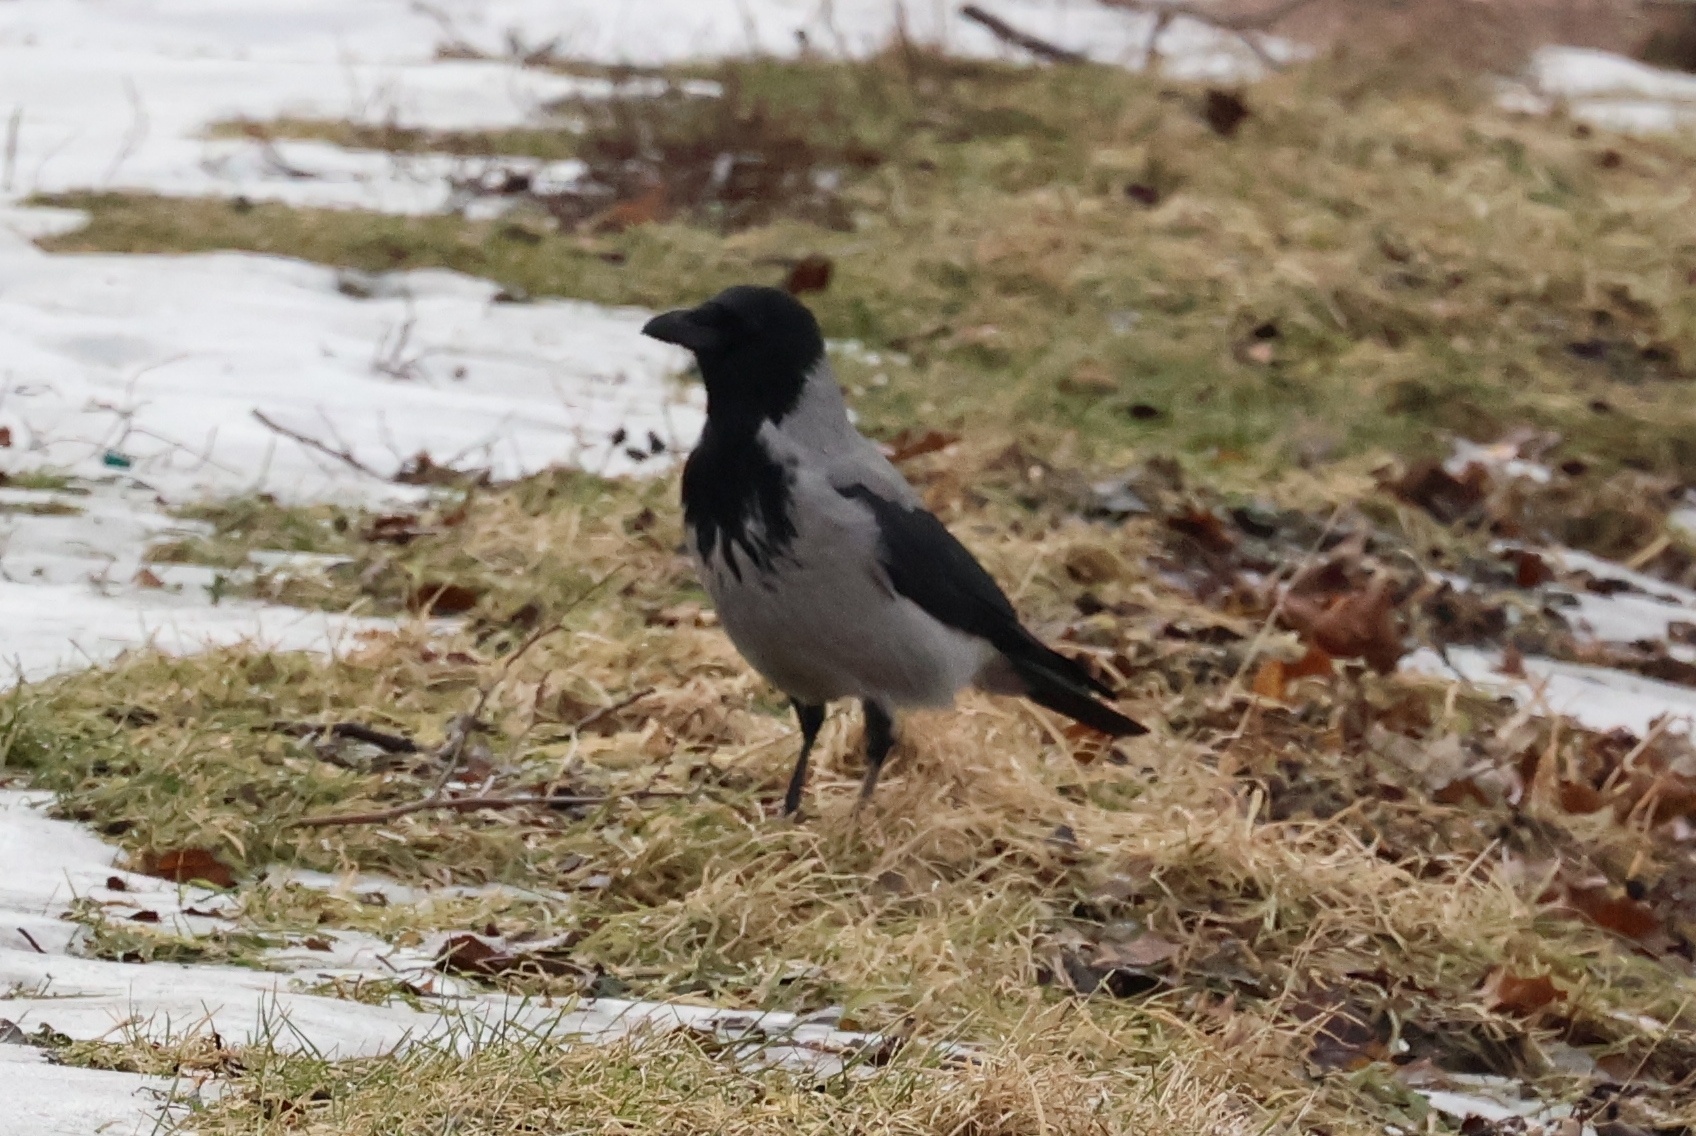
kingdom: Animalia
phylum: Chordata
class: Aves
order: Passeriformes
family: Corvidae
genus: Corvus
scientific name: Corvus cornix
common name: Hooded crow
